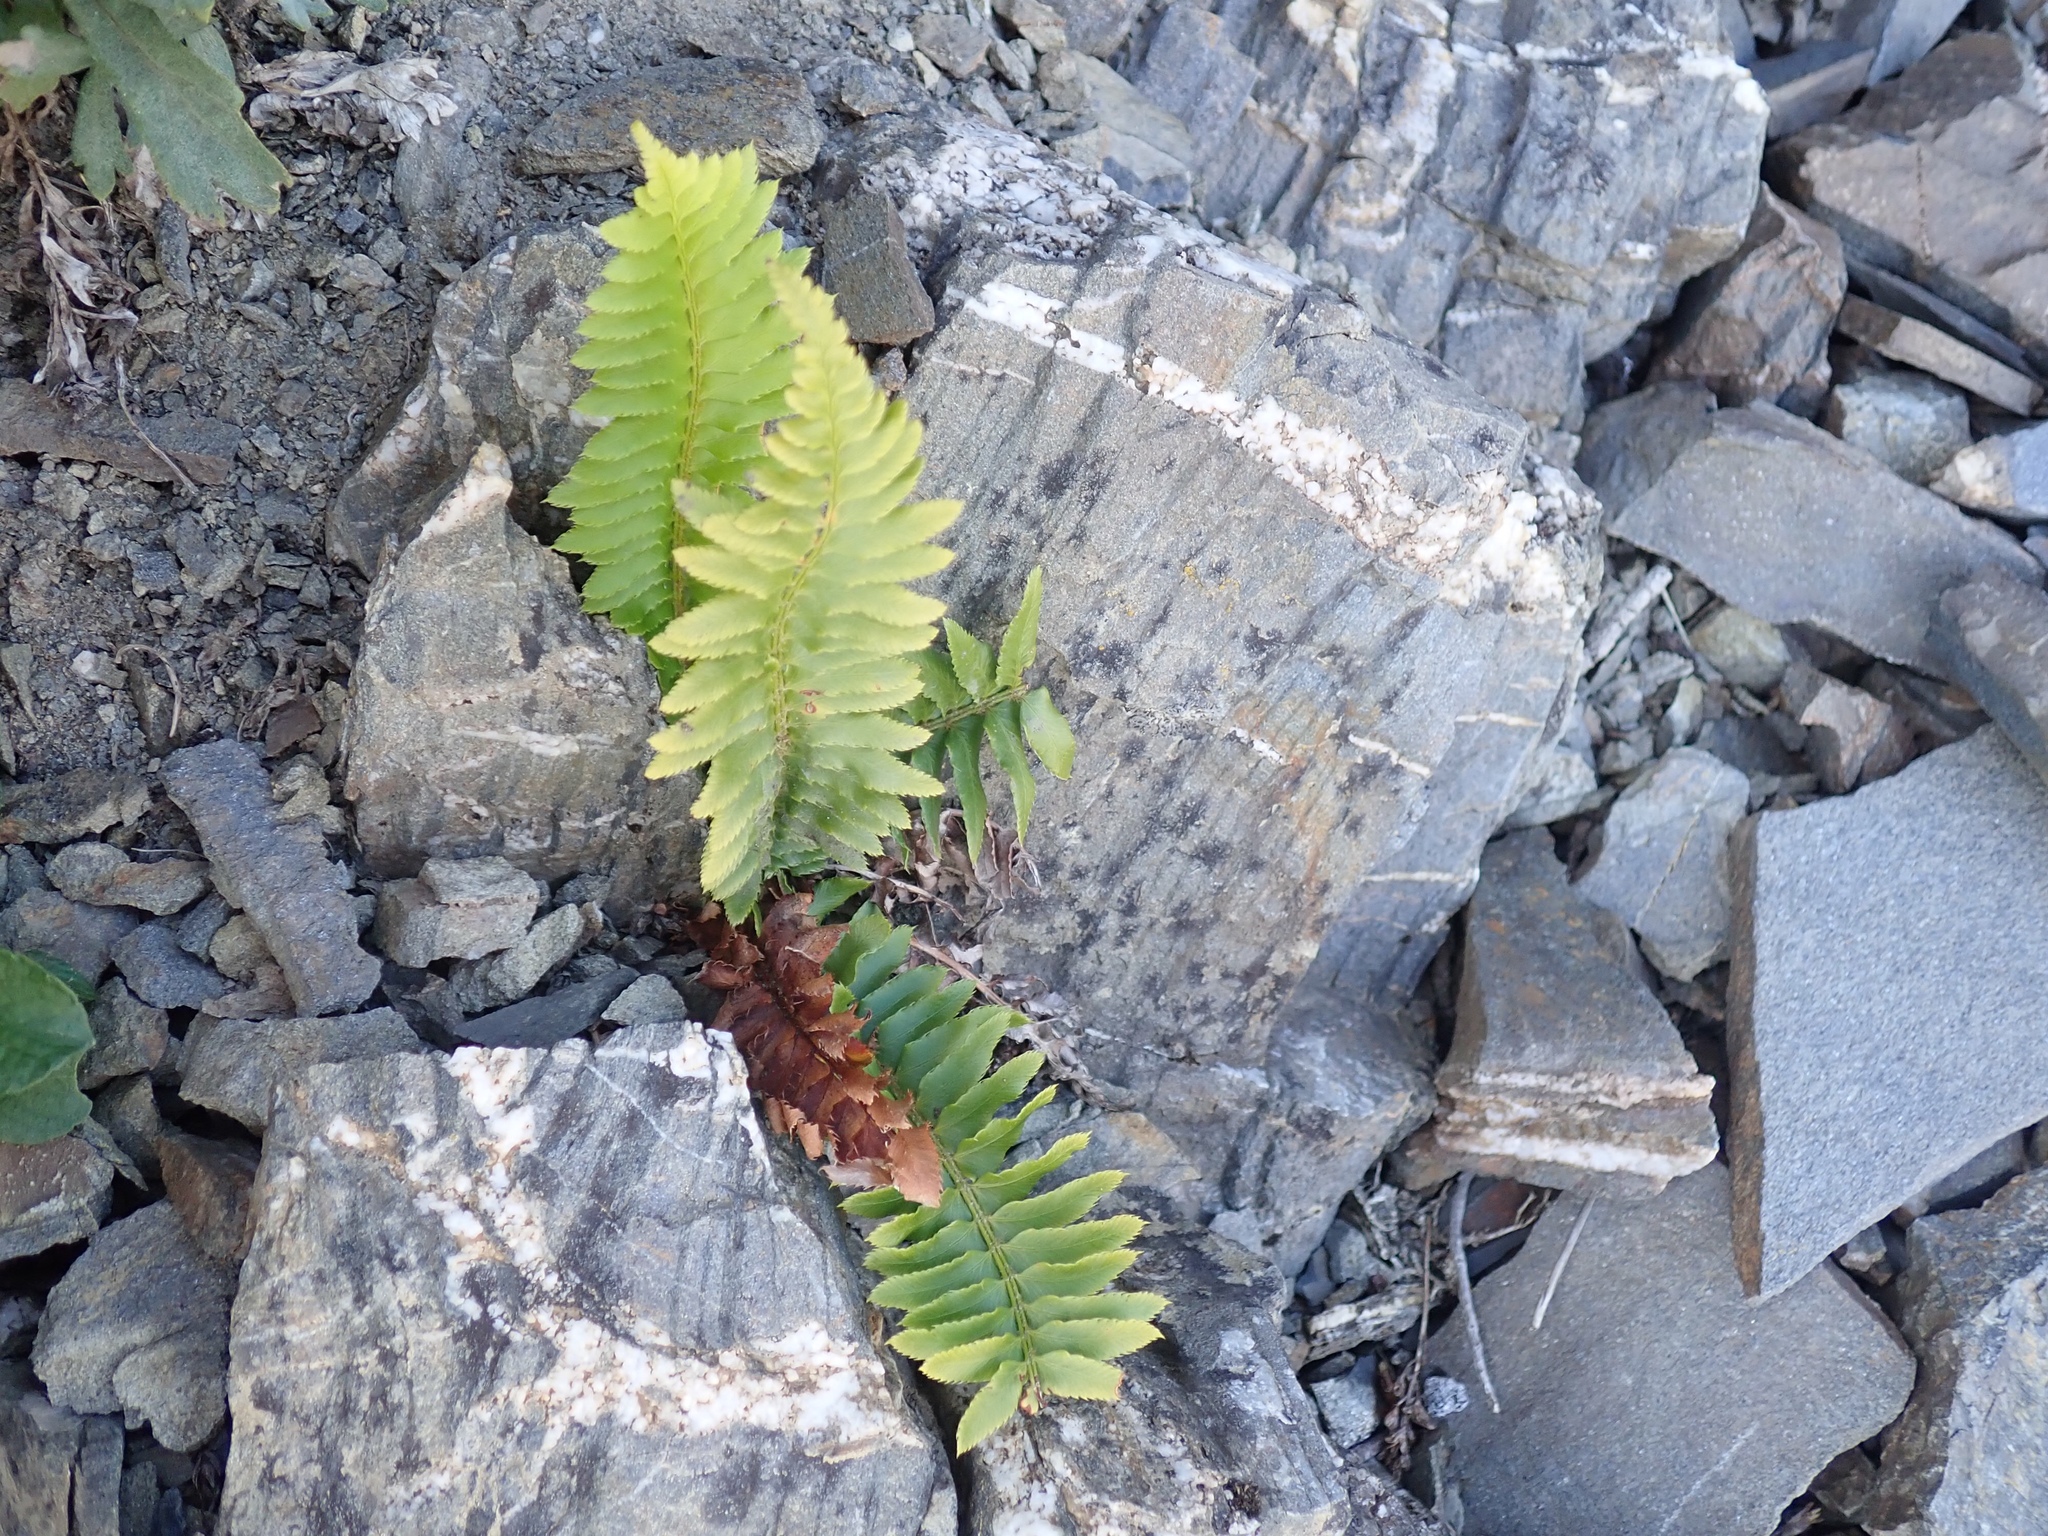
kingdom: Plantae
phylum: Tracheophyta
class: Polypodiopsida
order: Polypodiales
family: Dryopteridaceae
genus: Polystichum
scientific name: Polystichum munitum
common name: Western sword-fern
